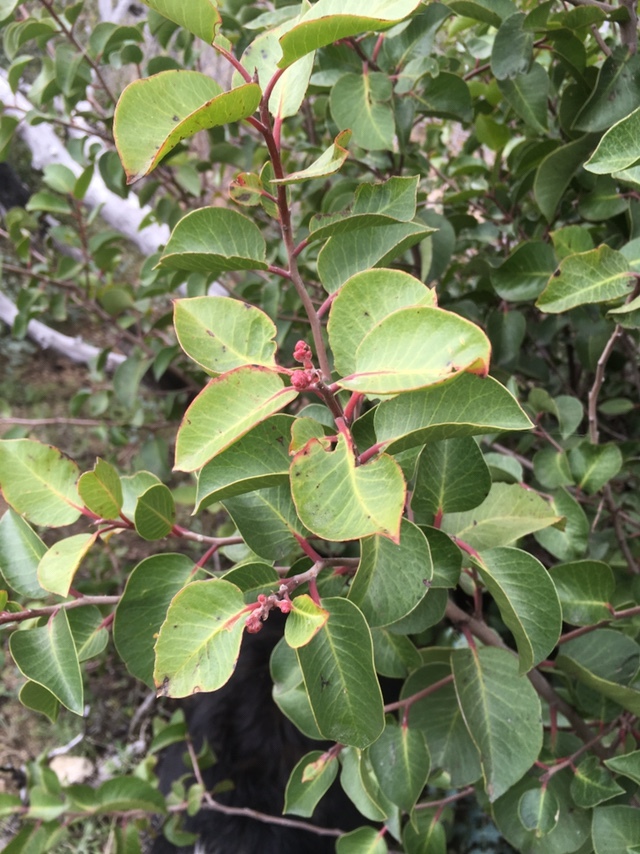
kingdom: Plantae
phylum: Tracheophyta
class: Magnoliopsida
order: Sapindales
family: Anacardiaceae
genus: Rhus
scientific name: Rhus ovata
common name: Sugar sumac
